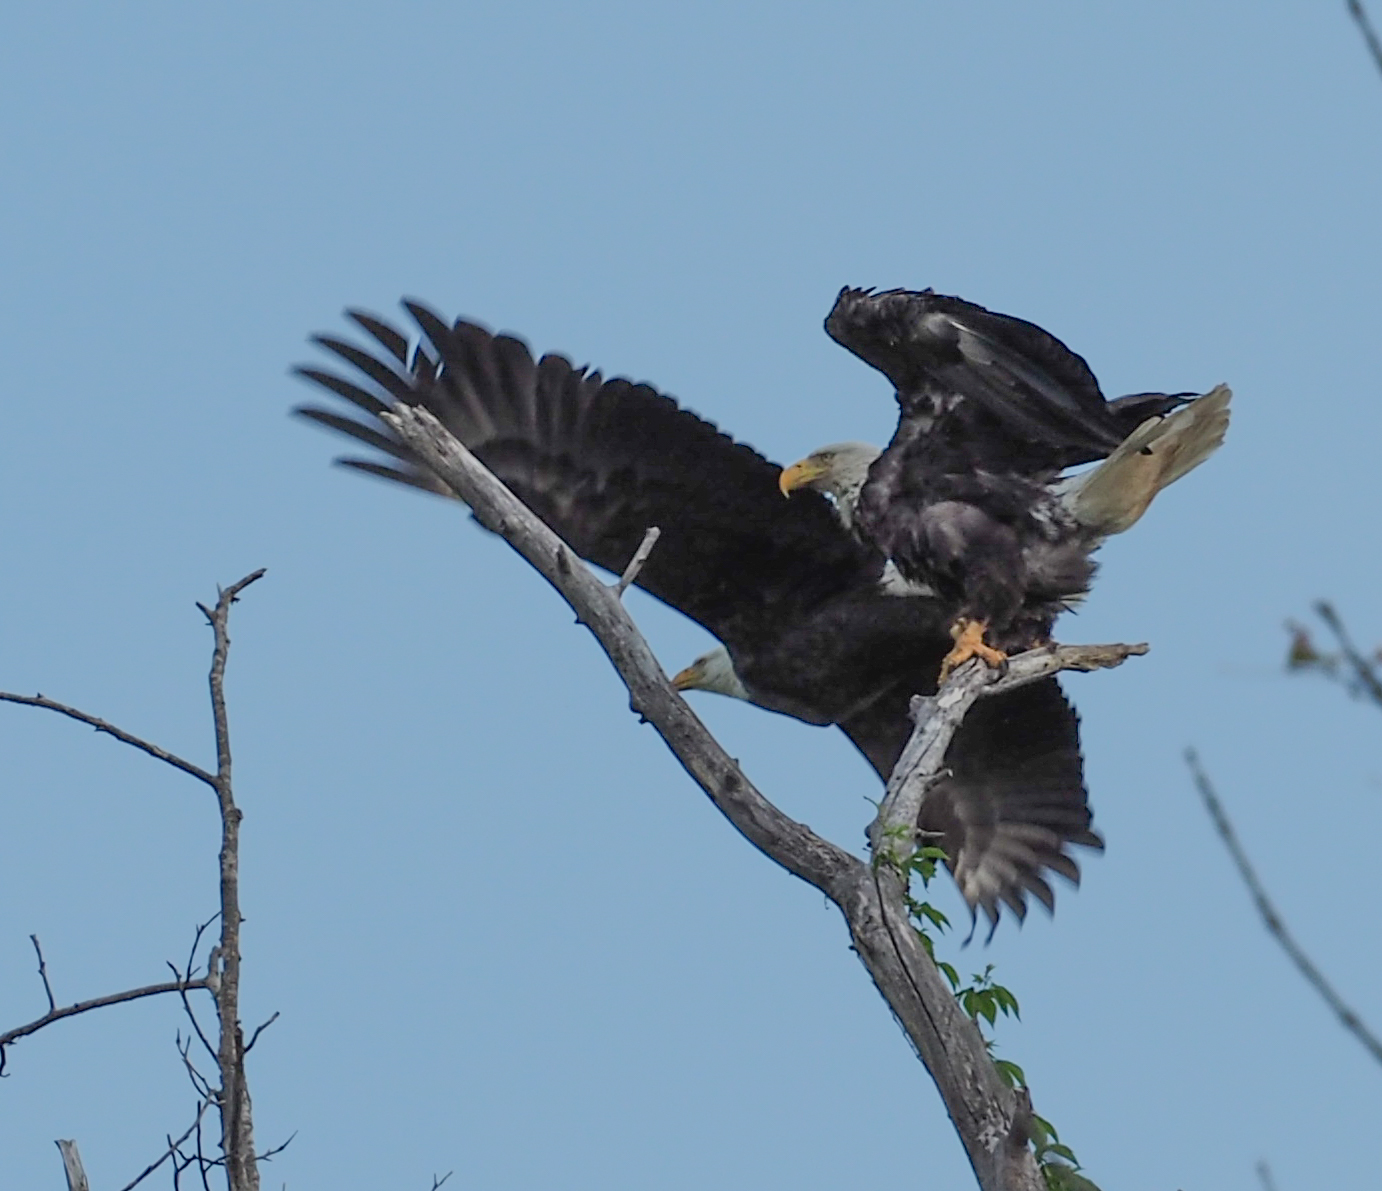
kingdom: Animalia
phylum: Chordata
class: Aves
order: Accipitriformes
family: Accipitridae
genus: Haliaeetus
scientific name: Haliaeetus leucocephalus
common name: Bald eagle
